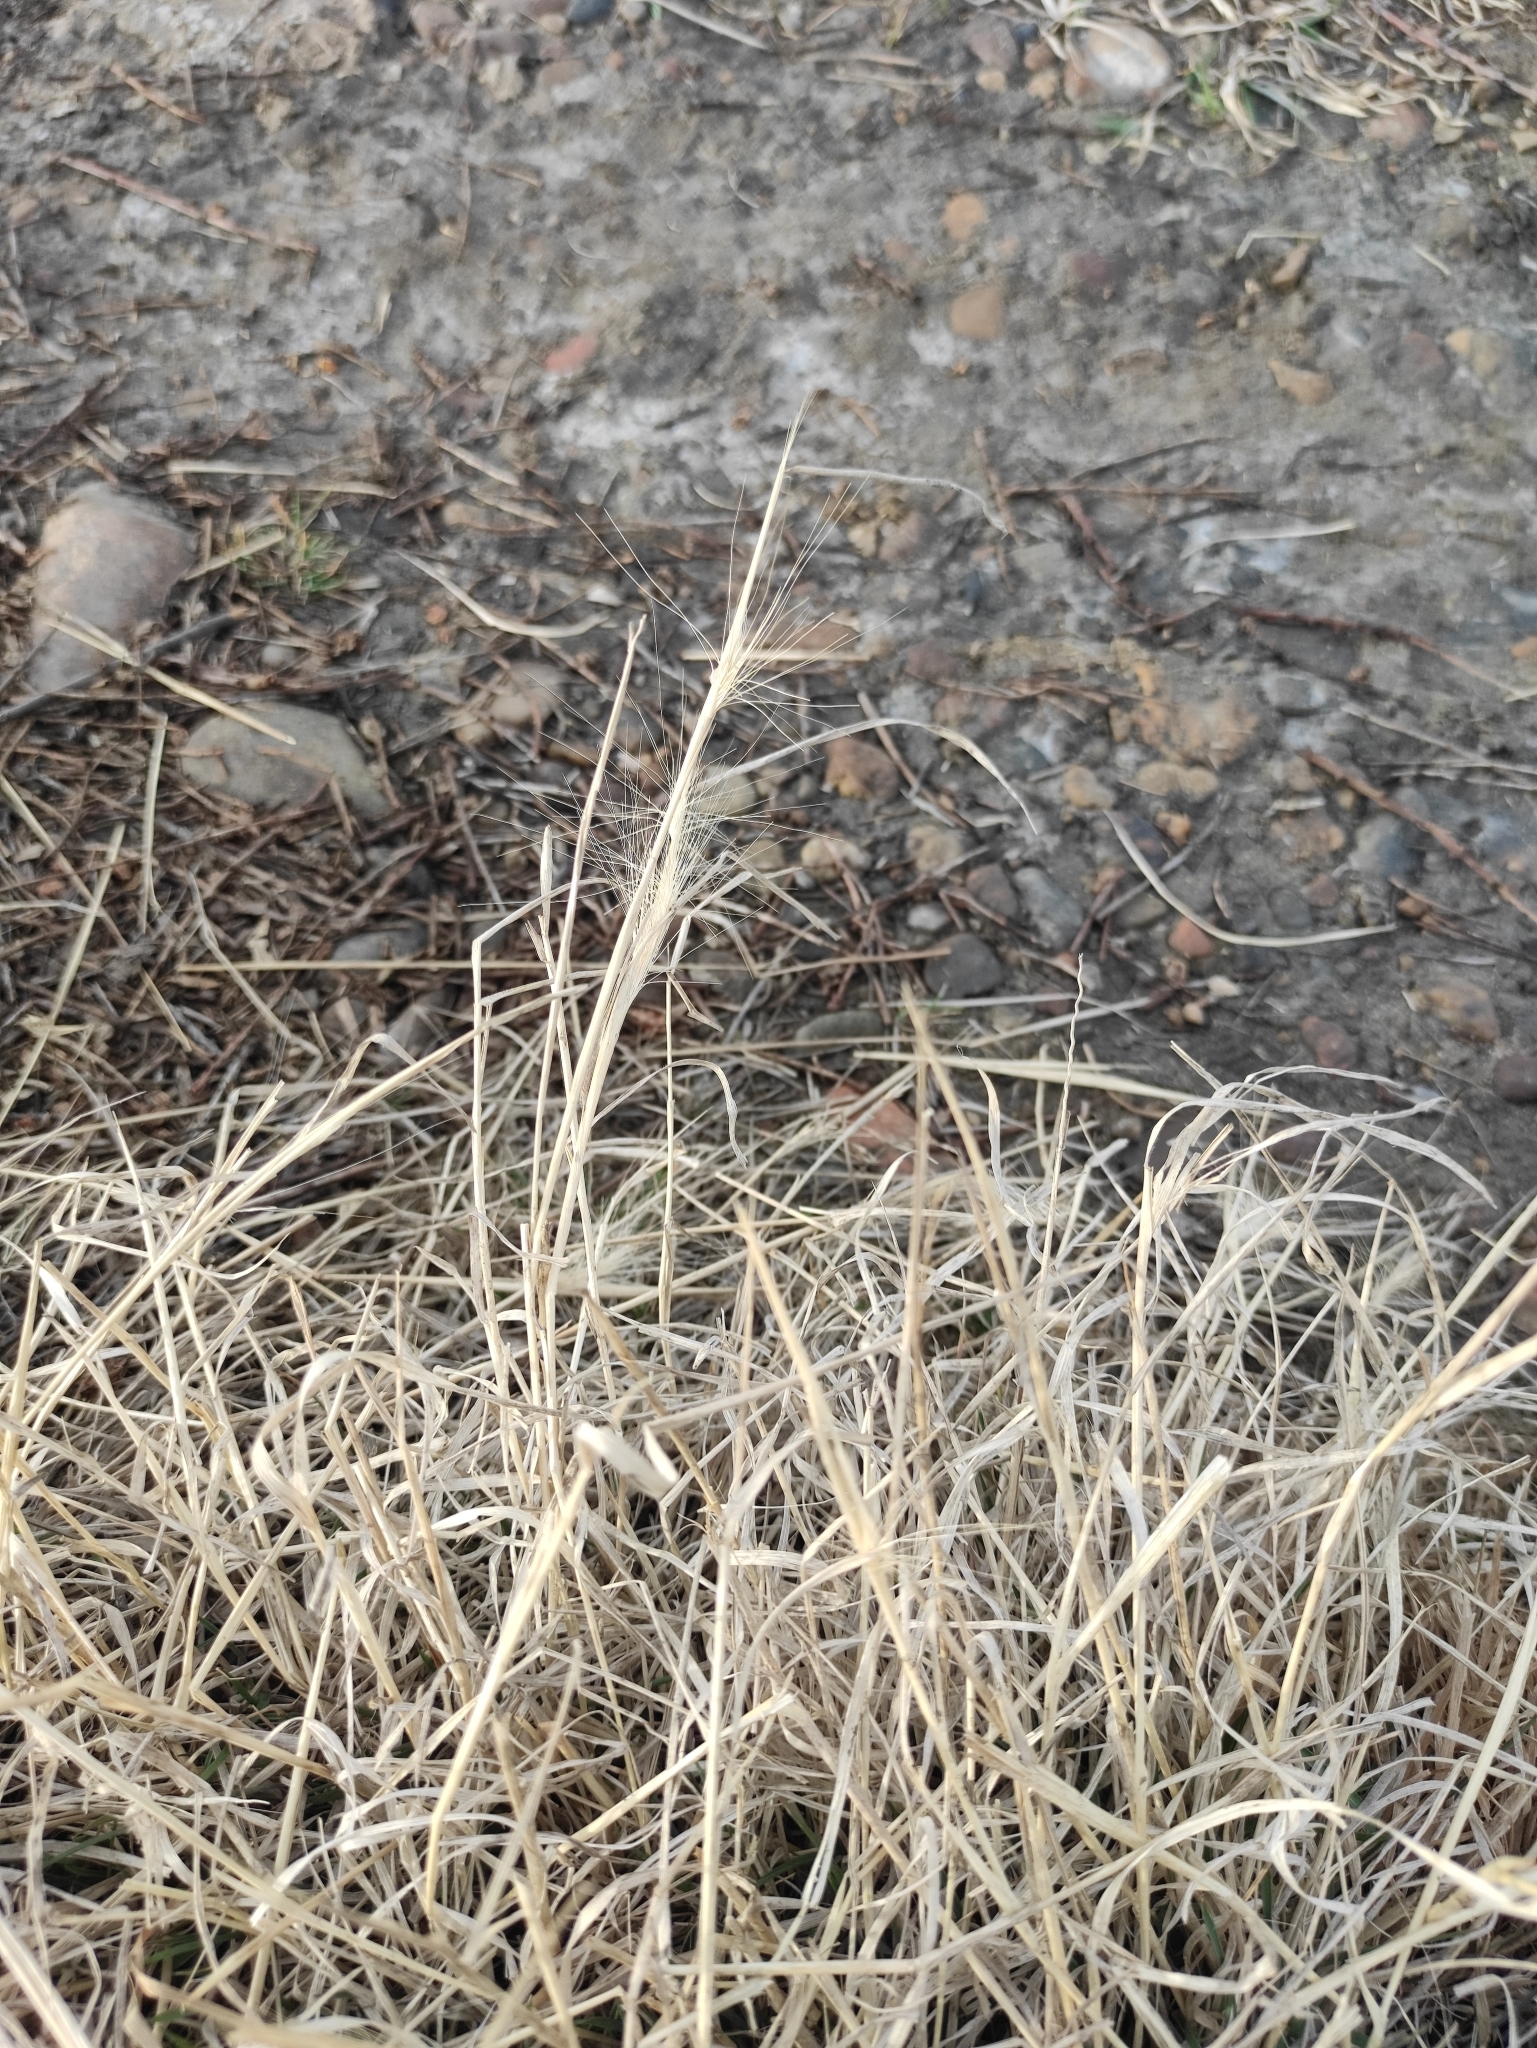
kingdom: Plantae
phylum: Tracheophyta
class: Liliopsida
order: Poales
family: Poaceae
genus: Hordeum
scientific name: Hordeum jubatum
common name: Foxtail barley
